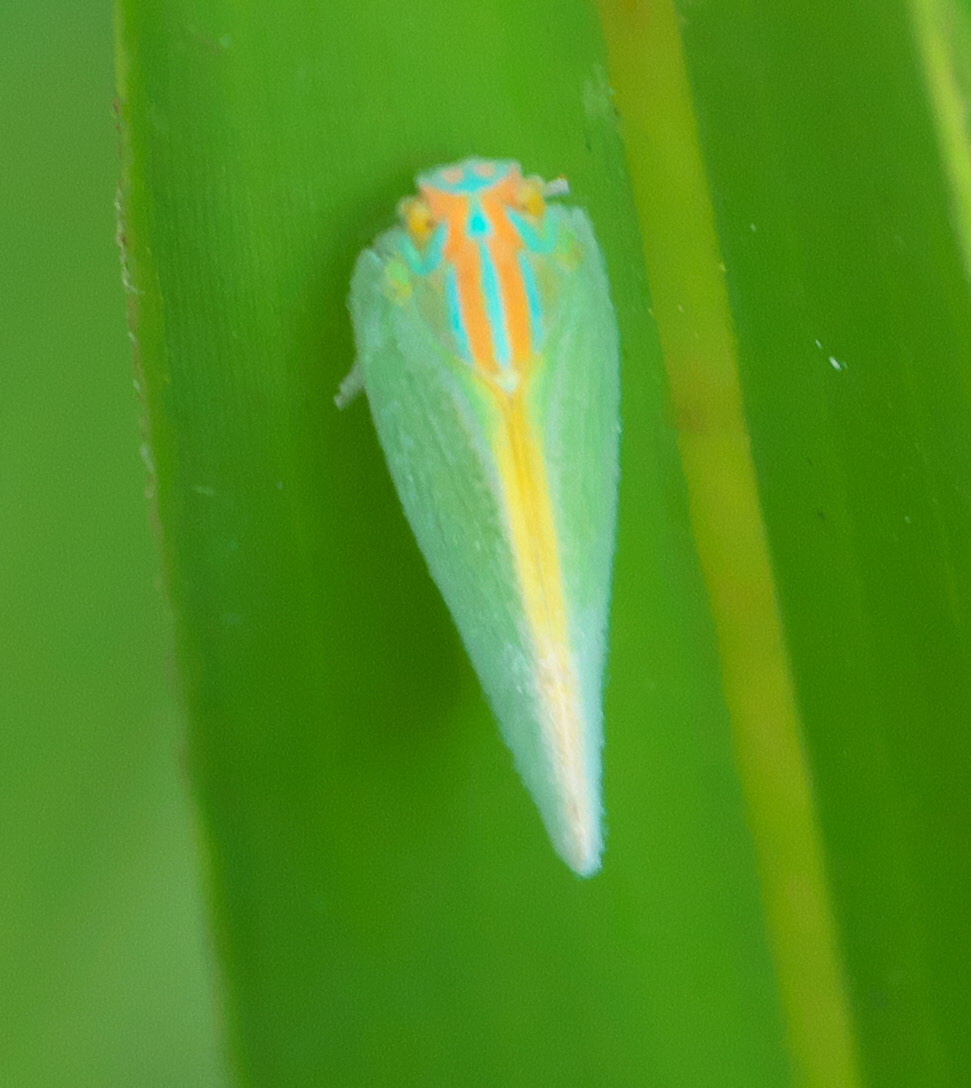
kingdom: Animalia
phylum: Arthropoda
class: Insecta
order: Hemiptera
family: Flatidae
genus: Ormenaria
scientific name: Ormenaria rufifascia
